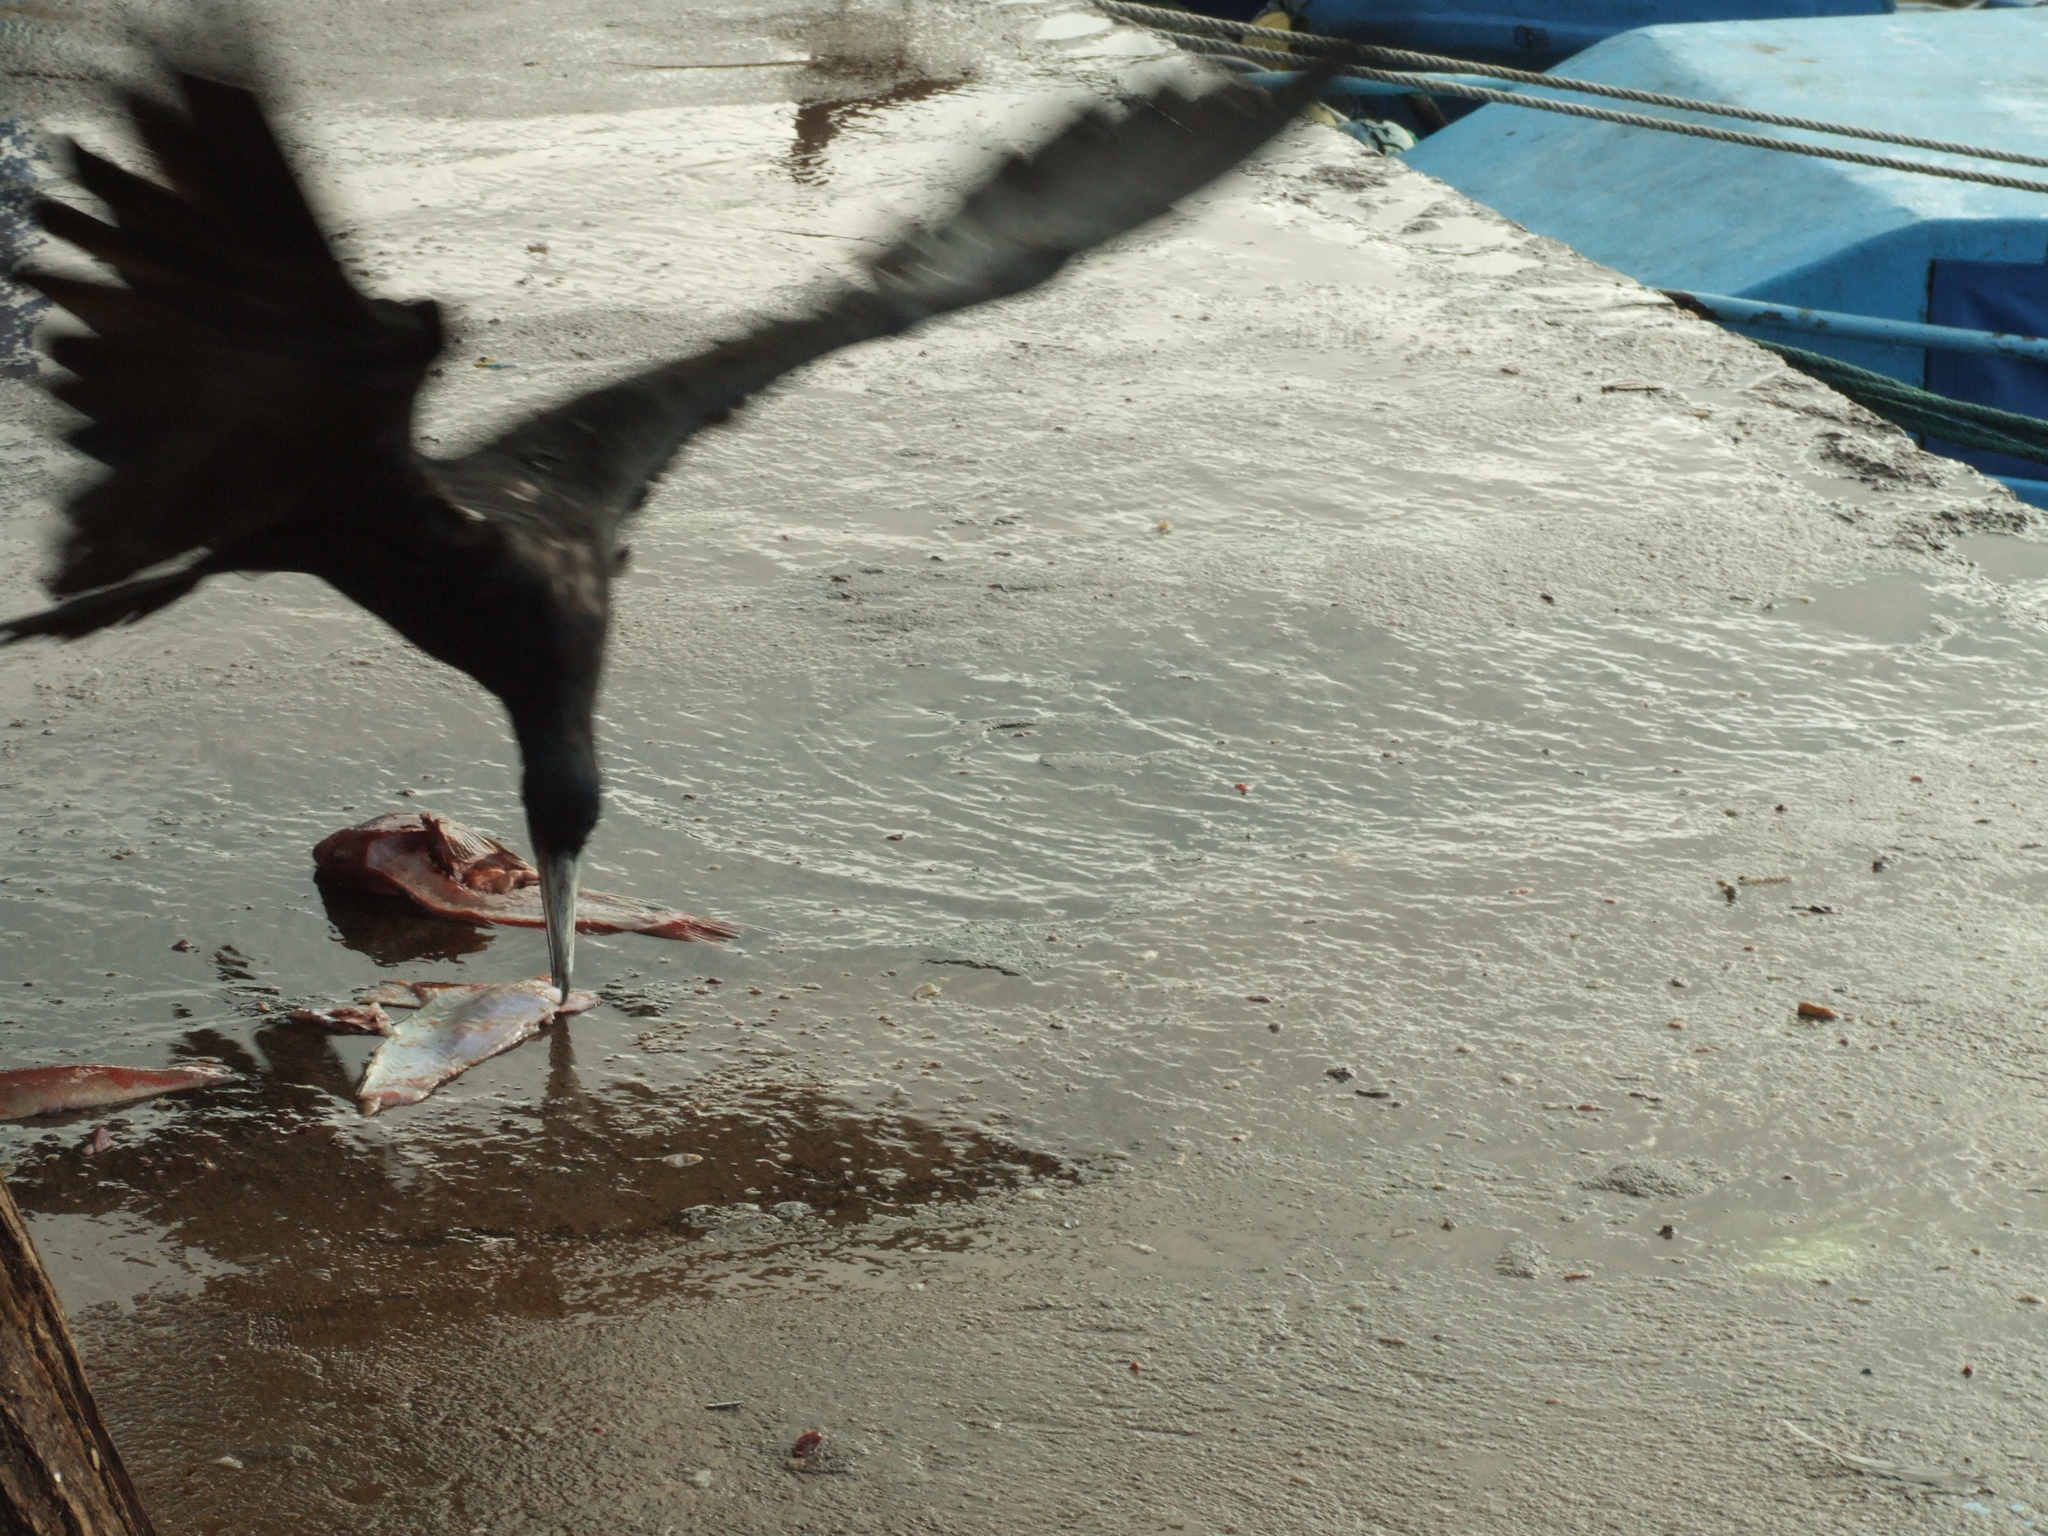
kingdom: Animalia
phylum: Chordata
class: Aves
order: Suliformes
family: Fregatidae
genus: Fregata
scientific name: Fregata magnificens
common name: Magnificent frigatebird
